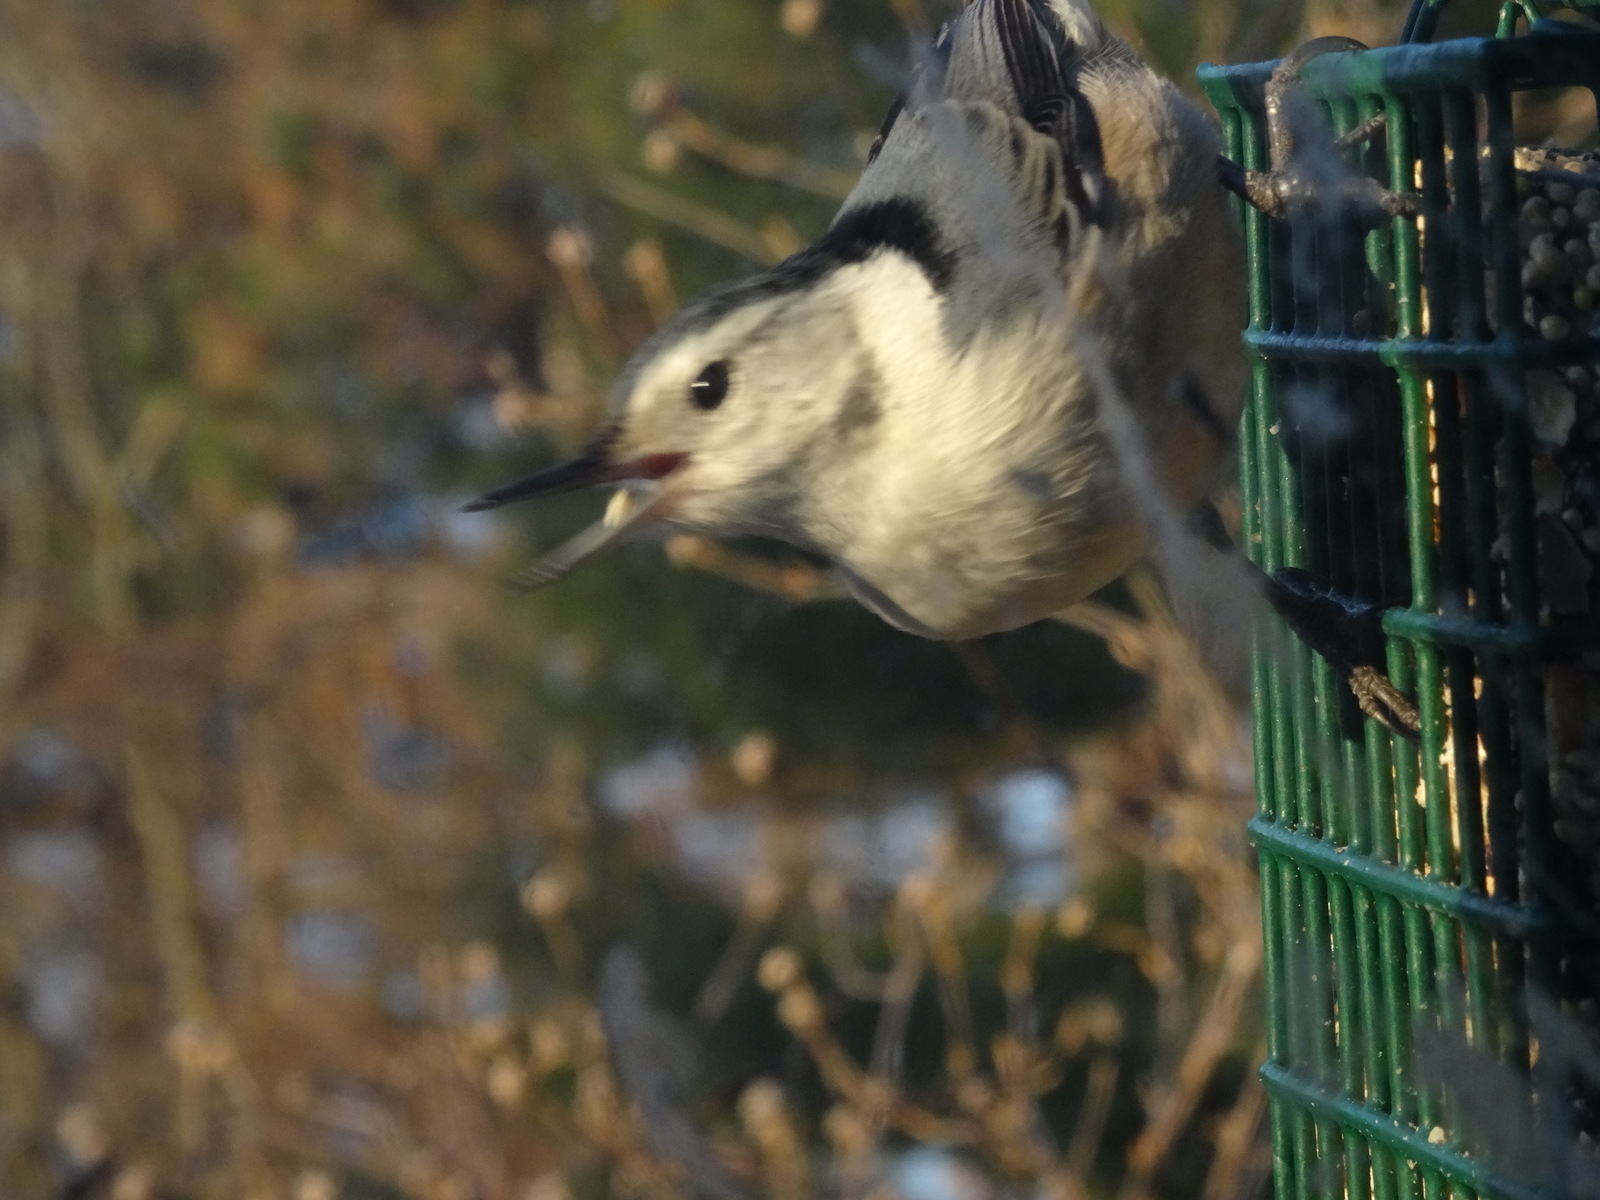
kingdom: Animalia
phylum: Chordata
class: Aves
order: Passeriformes
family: Sittidae
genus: Sitta
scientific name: Sitta carolinensis
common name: White-breasted nuthatch
